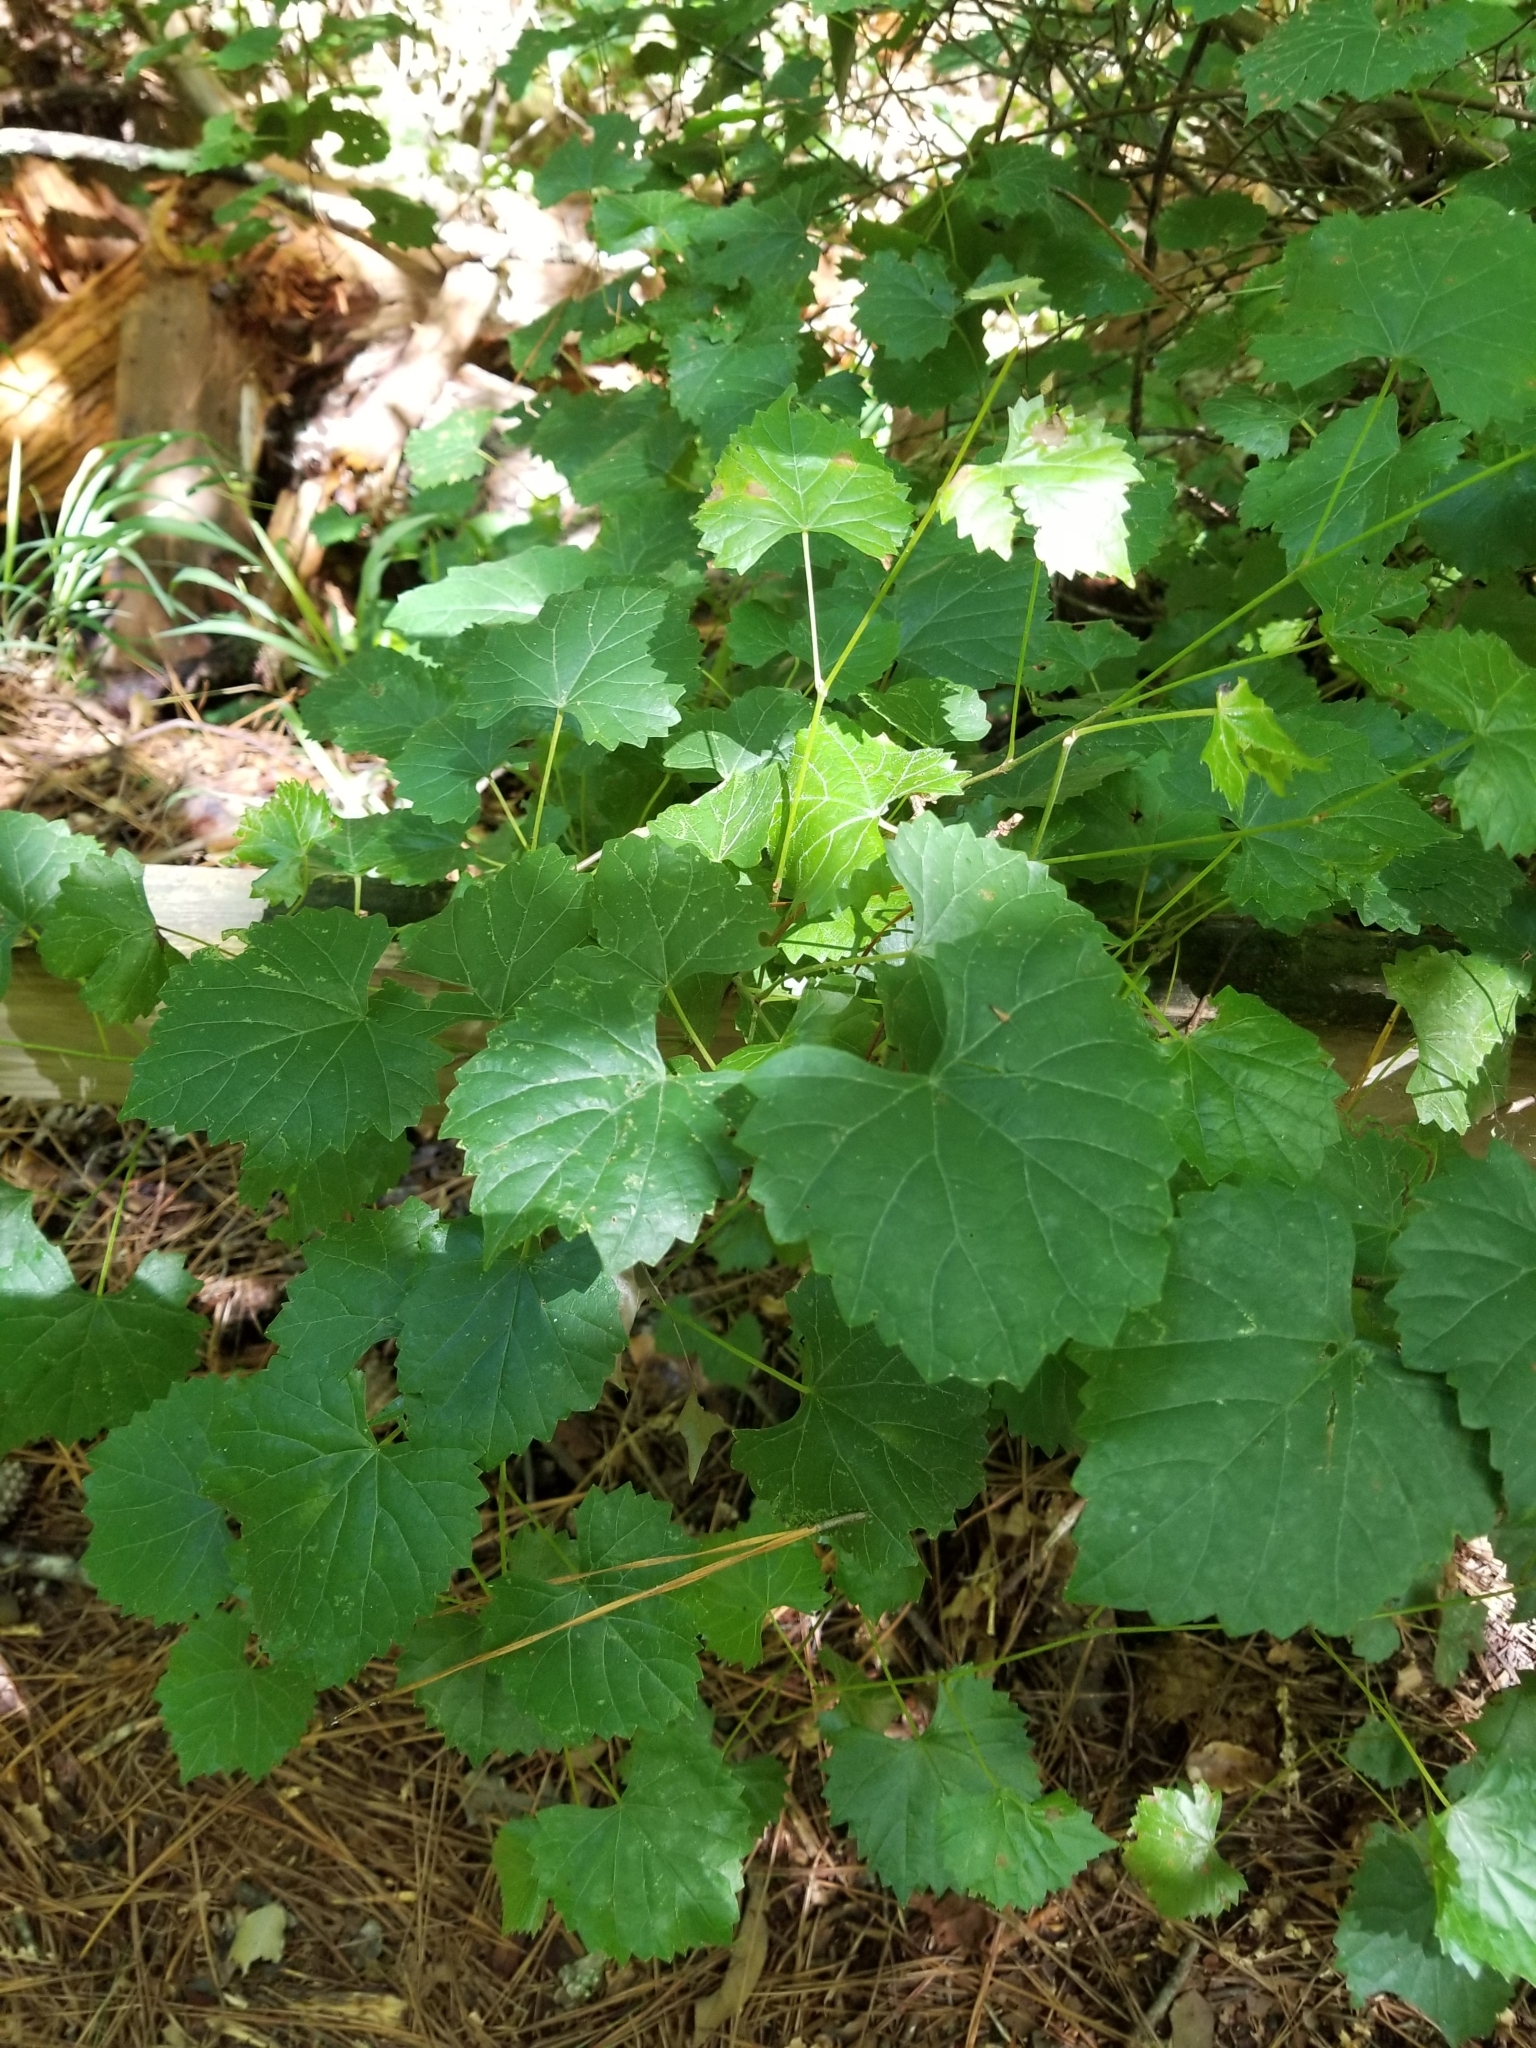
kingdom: Plantae
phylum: Tracheophyta
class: Magnoliopsida
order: Vitales
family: Vitaceae
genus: Vitis
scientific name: Vitis rotundifolia
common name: Muscadine grape
